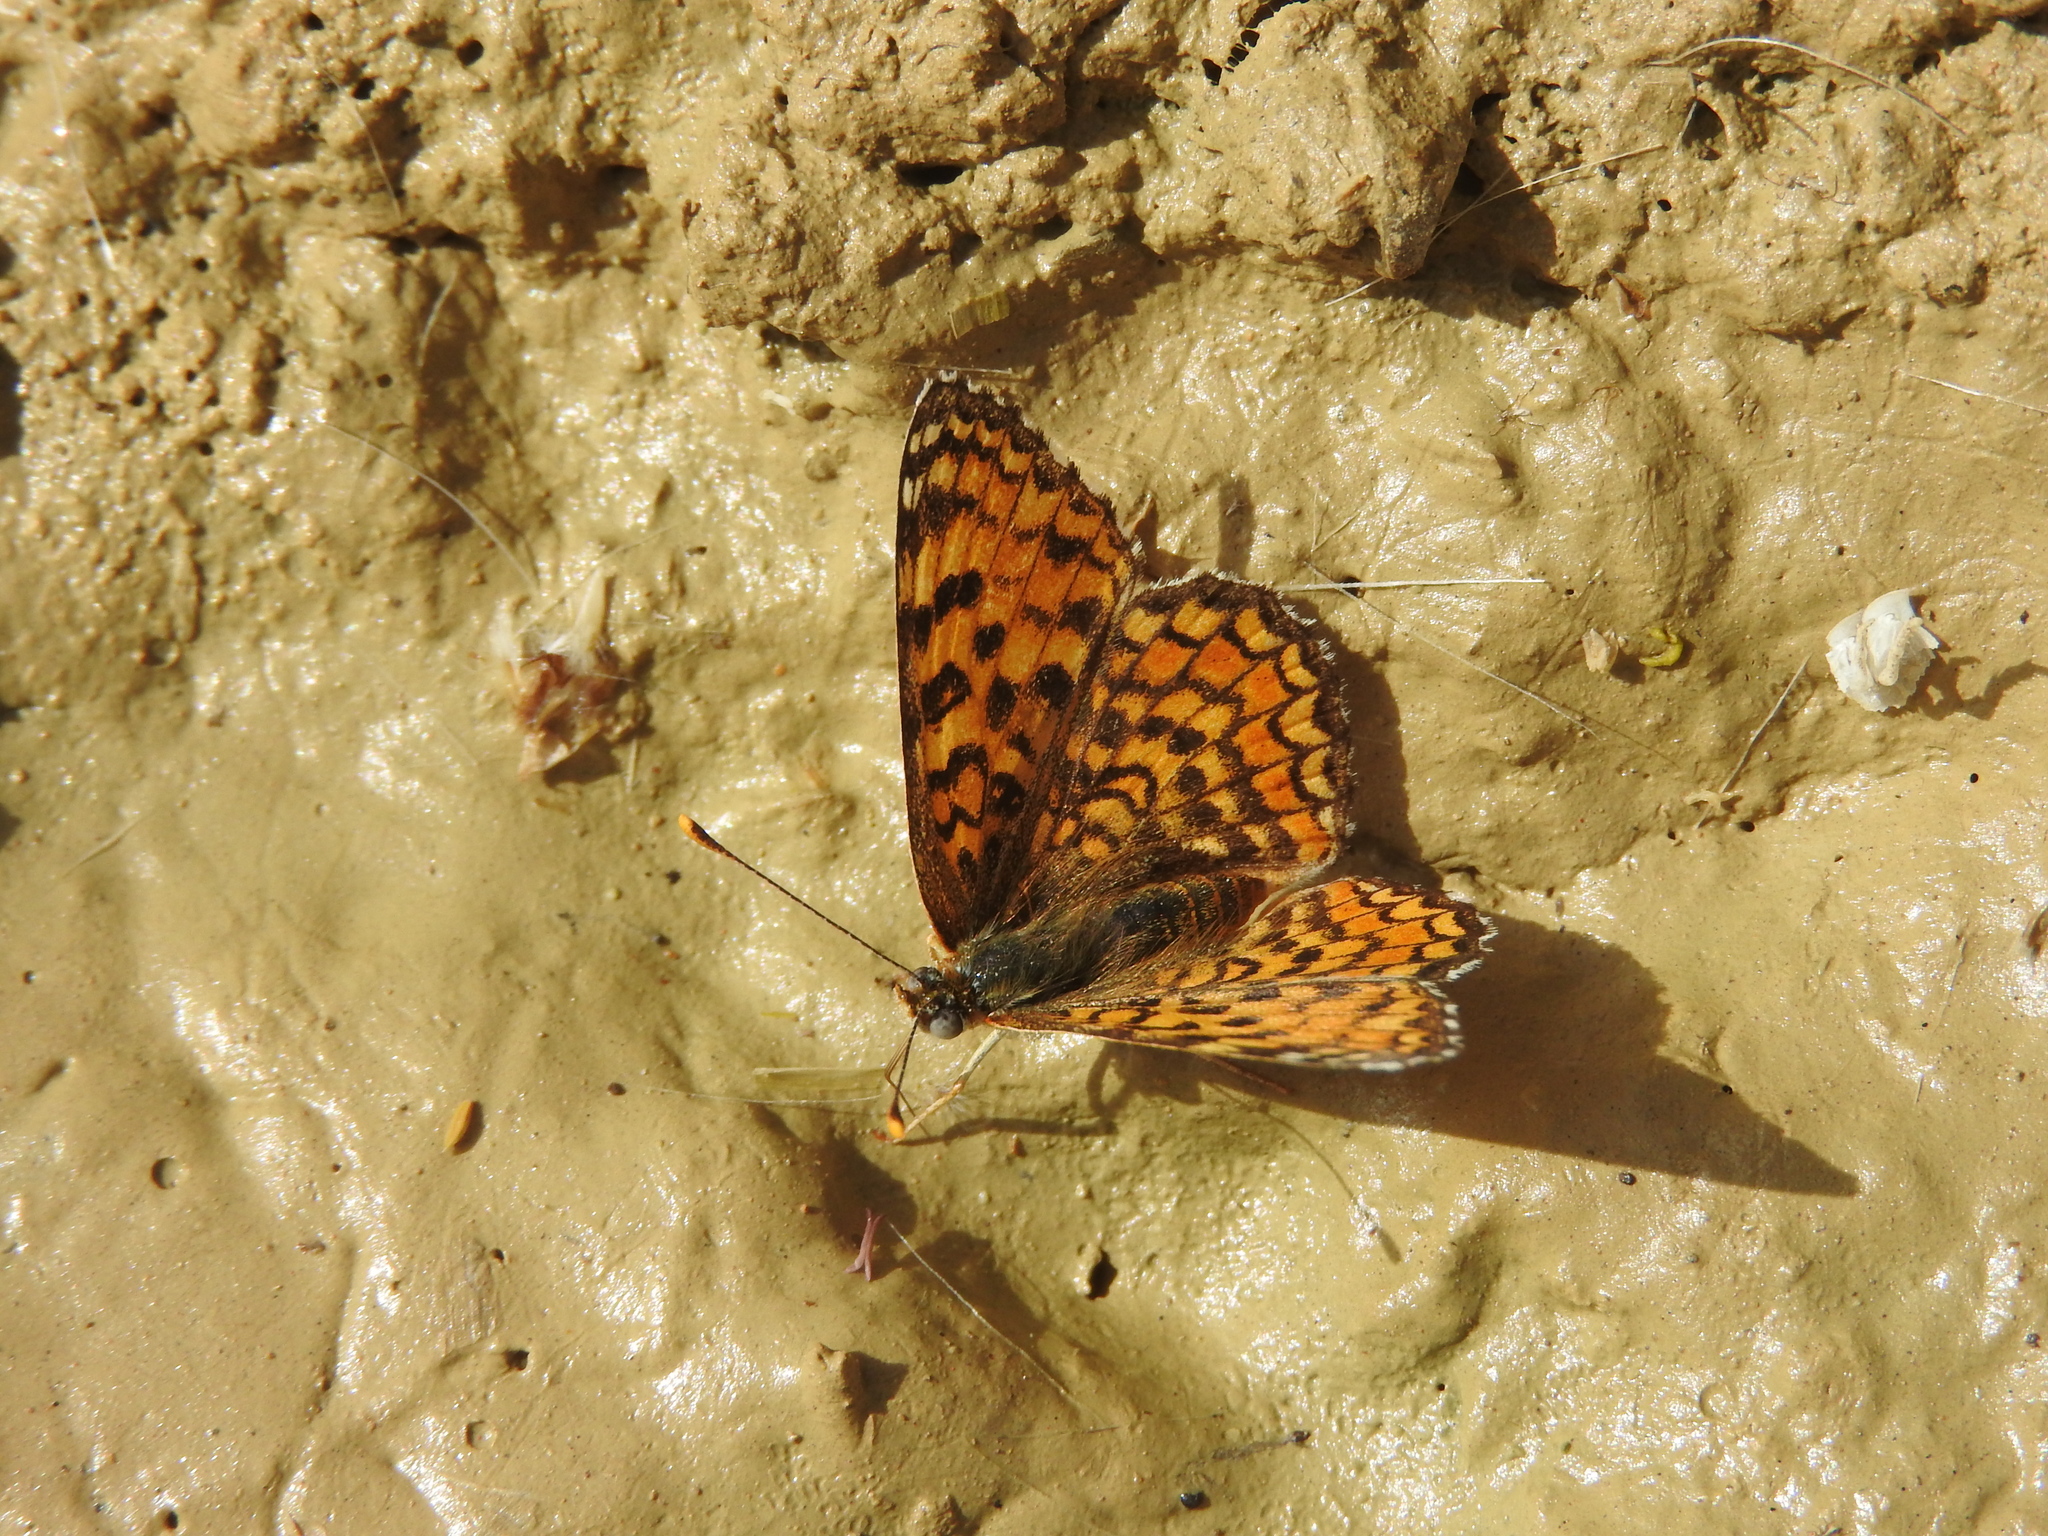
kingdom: Animalia
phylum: Arthropoda
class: Insecta
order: Lepidoptera
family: Nymphalidae
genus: Melitaea
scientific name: Melitaea phoebe
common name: Knapweed fritillary
